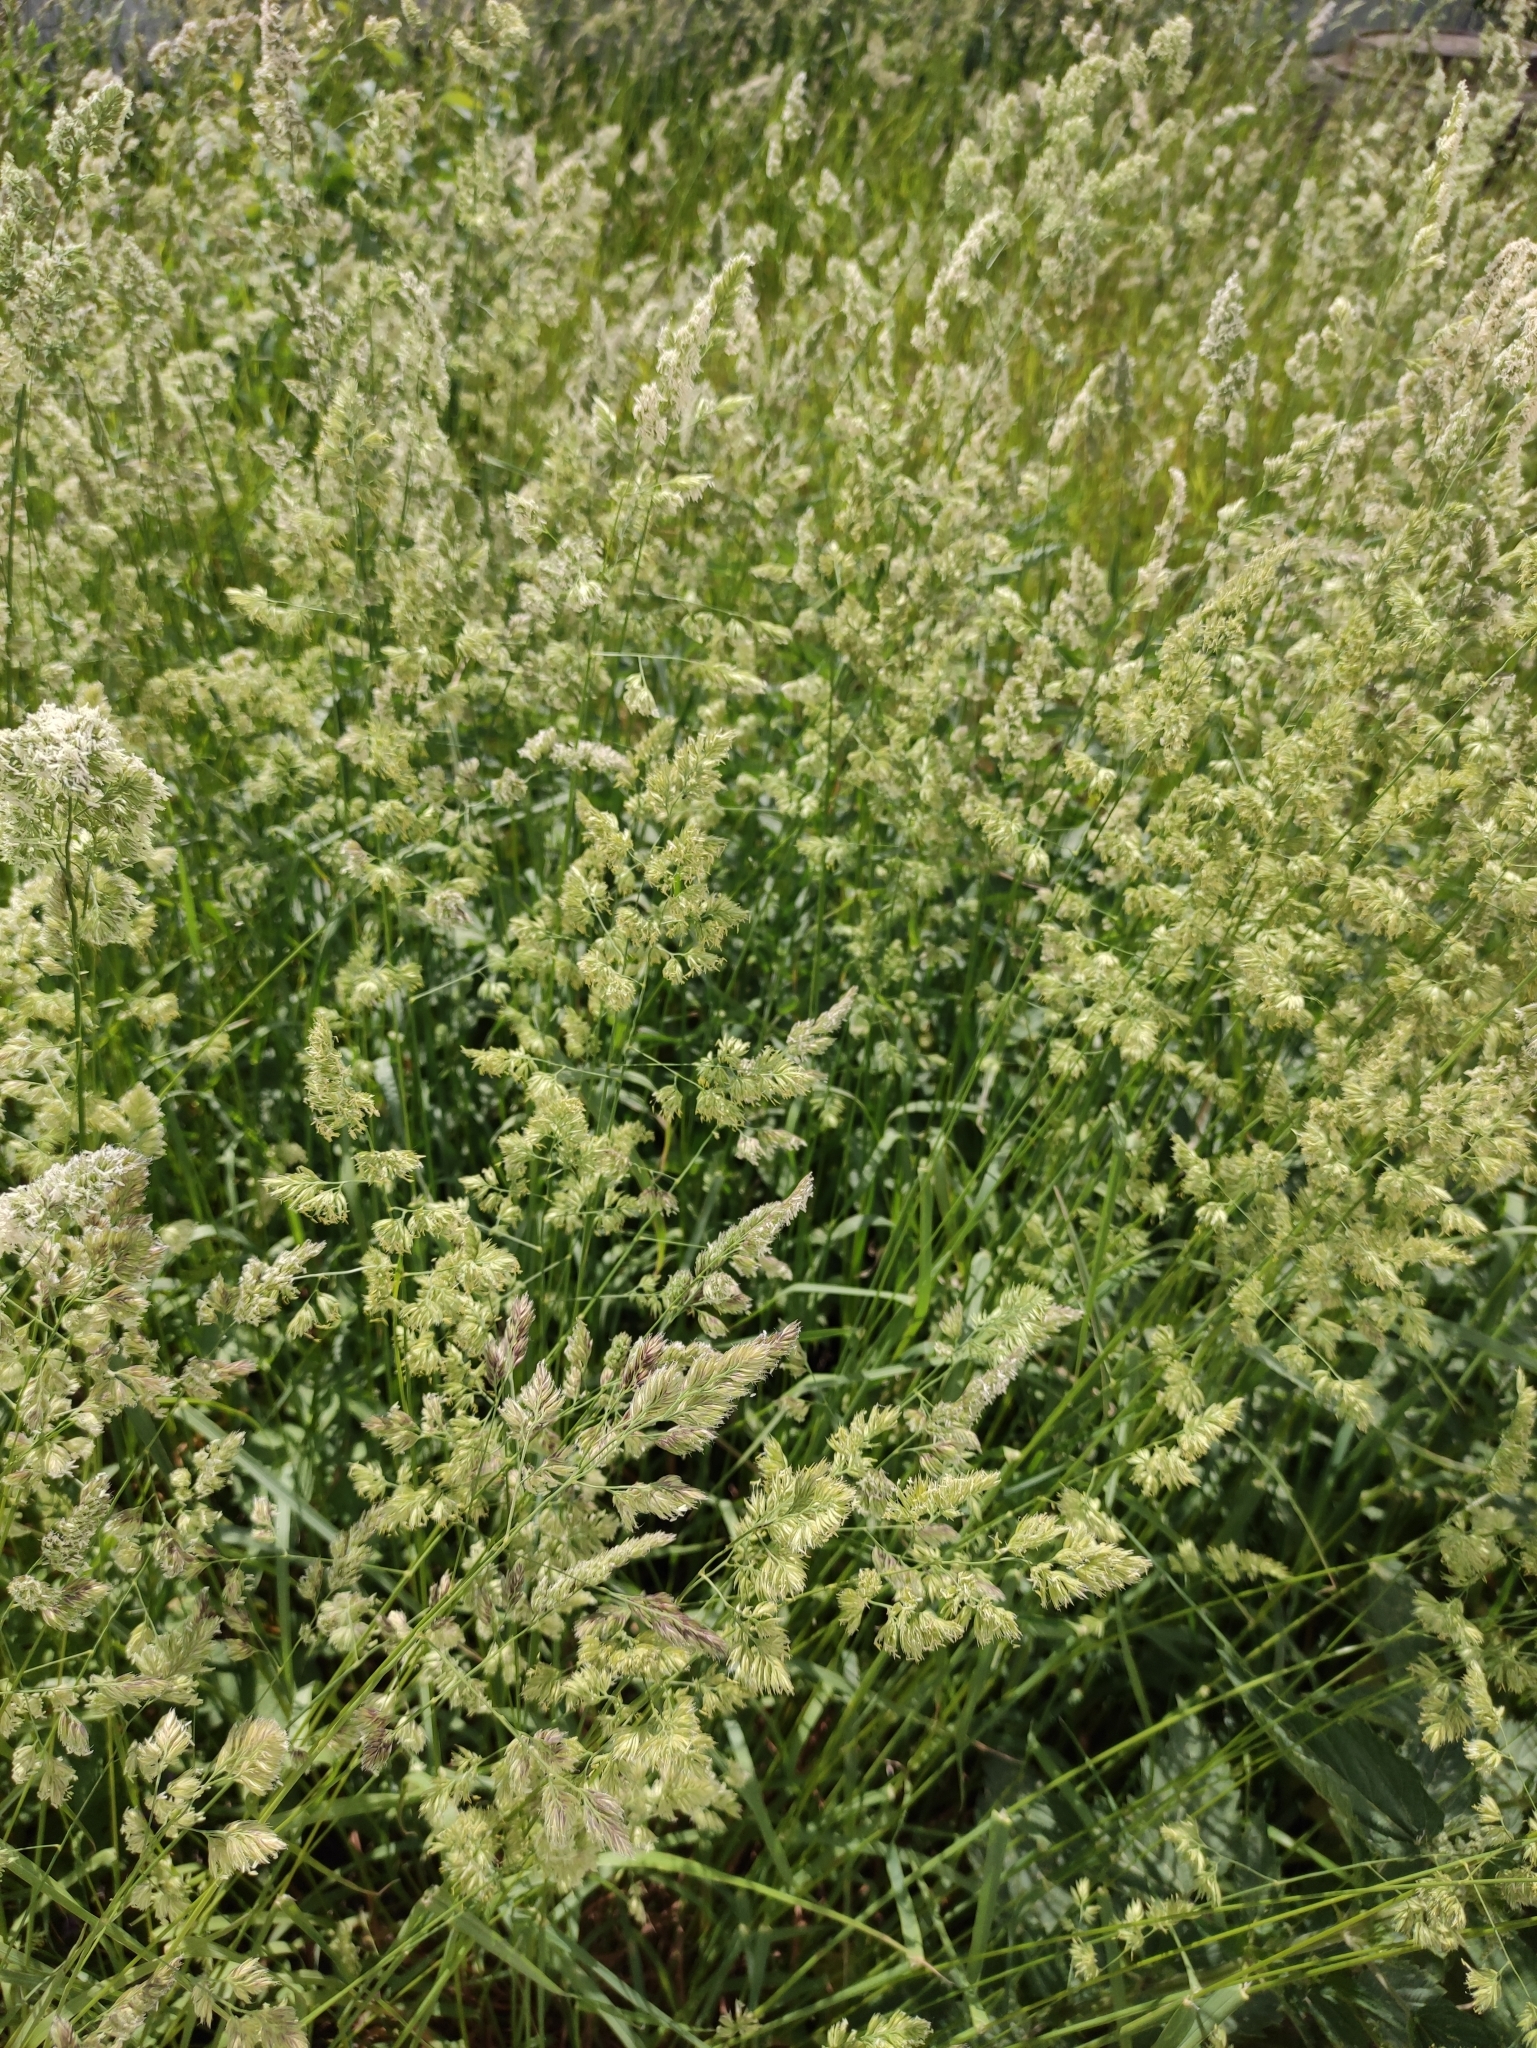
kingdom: Plantae
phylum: Tracheophyta
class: Liliopsida
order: Poales
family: Poaceae
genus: Dactylis
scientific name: Dactylis glomerata
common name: Orchardgrass
